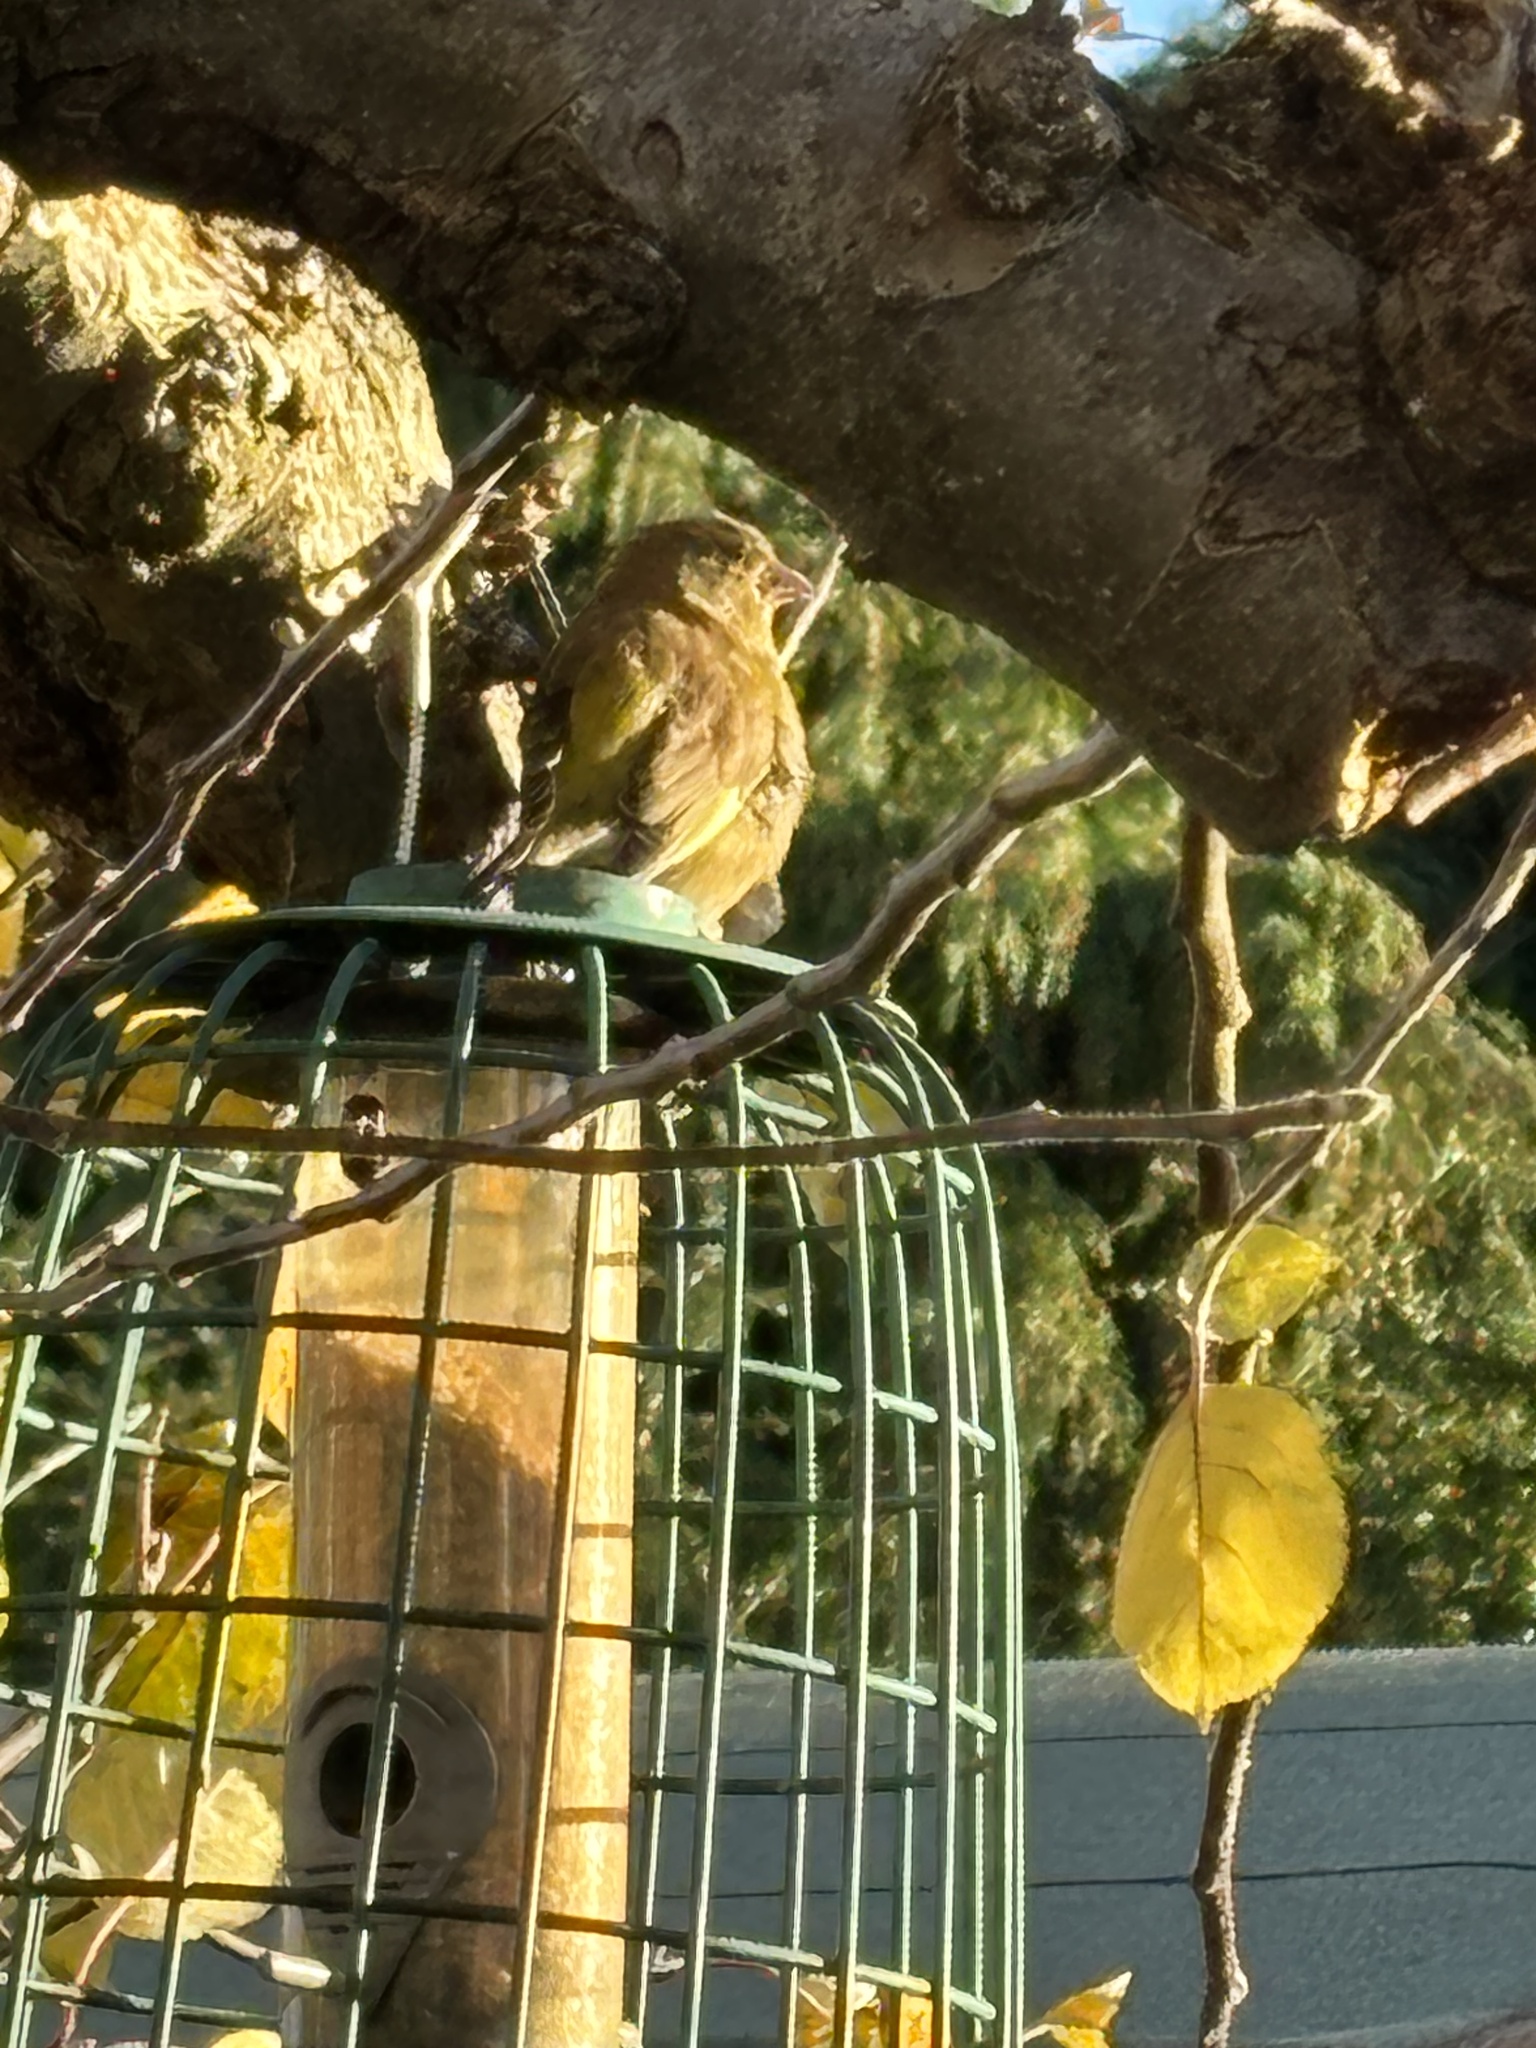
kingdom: Plantae
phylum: Tracheophyta
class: Liliopsida
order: Poales
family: Poaceae
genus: Chloris
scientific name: Chloris chloris
